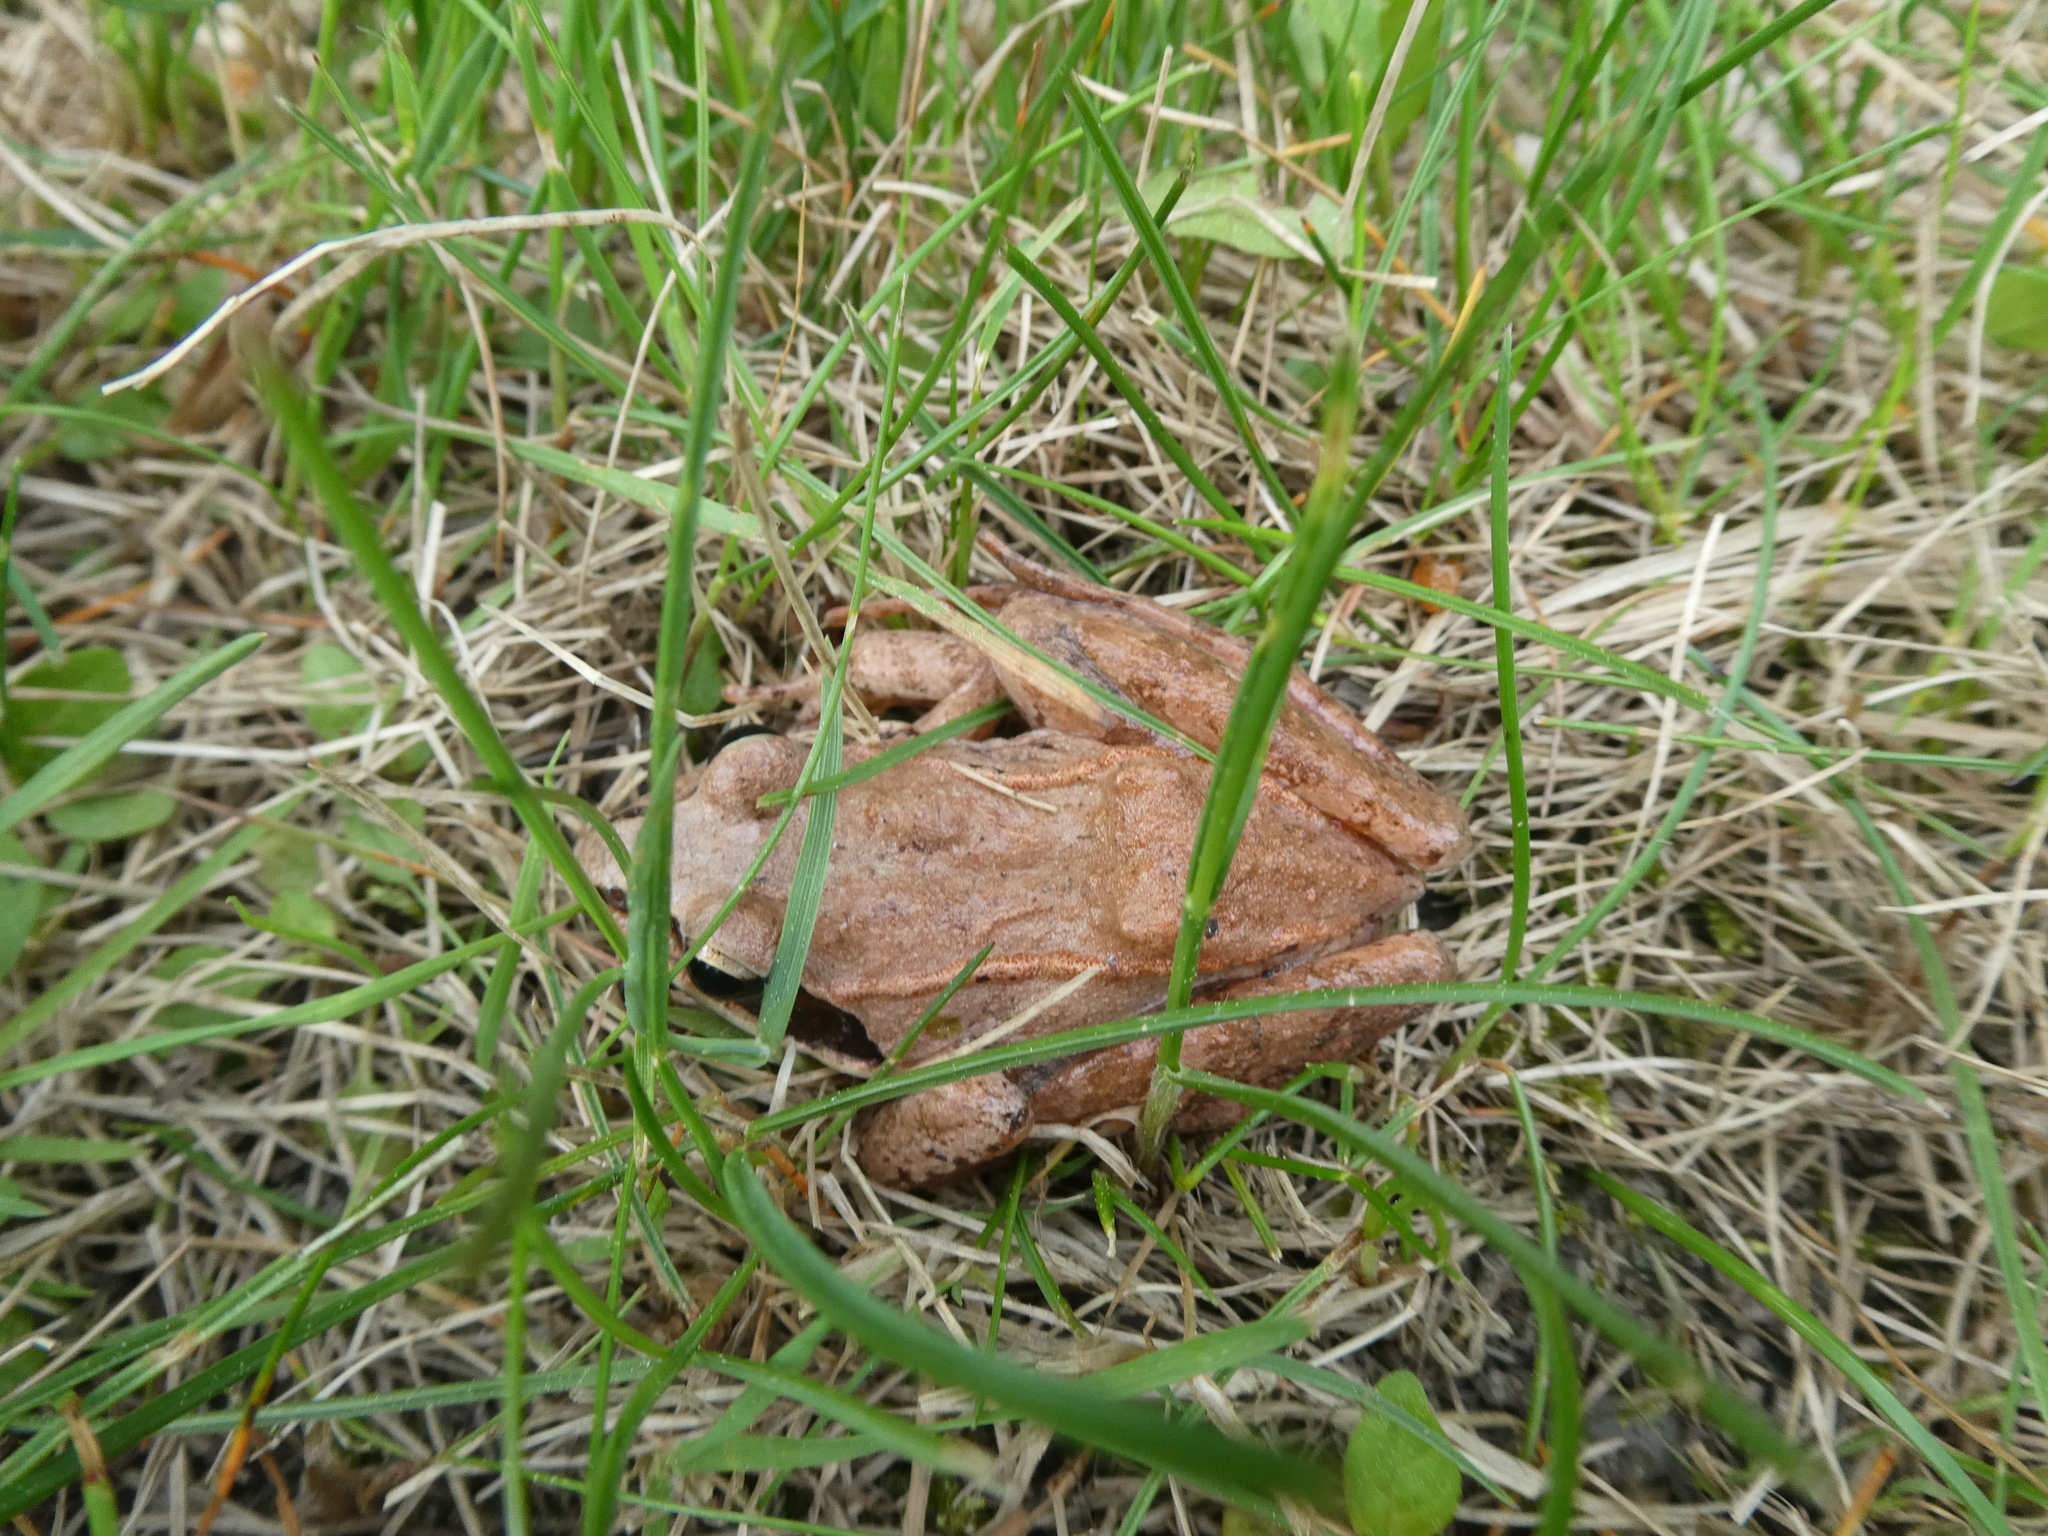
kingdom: Animalia
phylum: Chordata
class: Amphibia
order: Anura
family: Ranidae
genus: Lithobates
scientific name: Lithobates sylvaticus
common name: Wood frog
